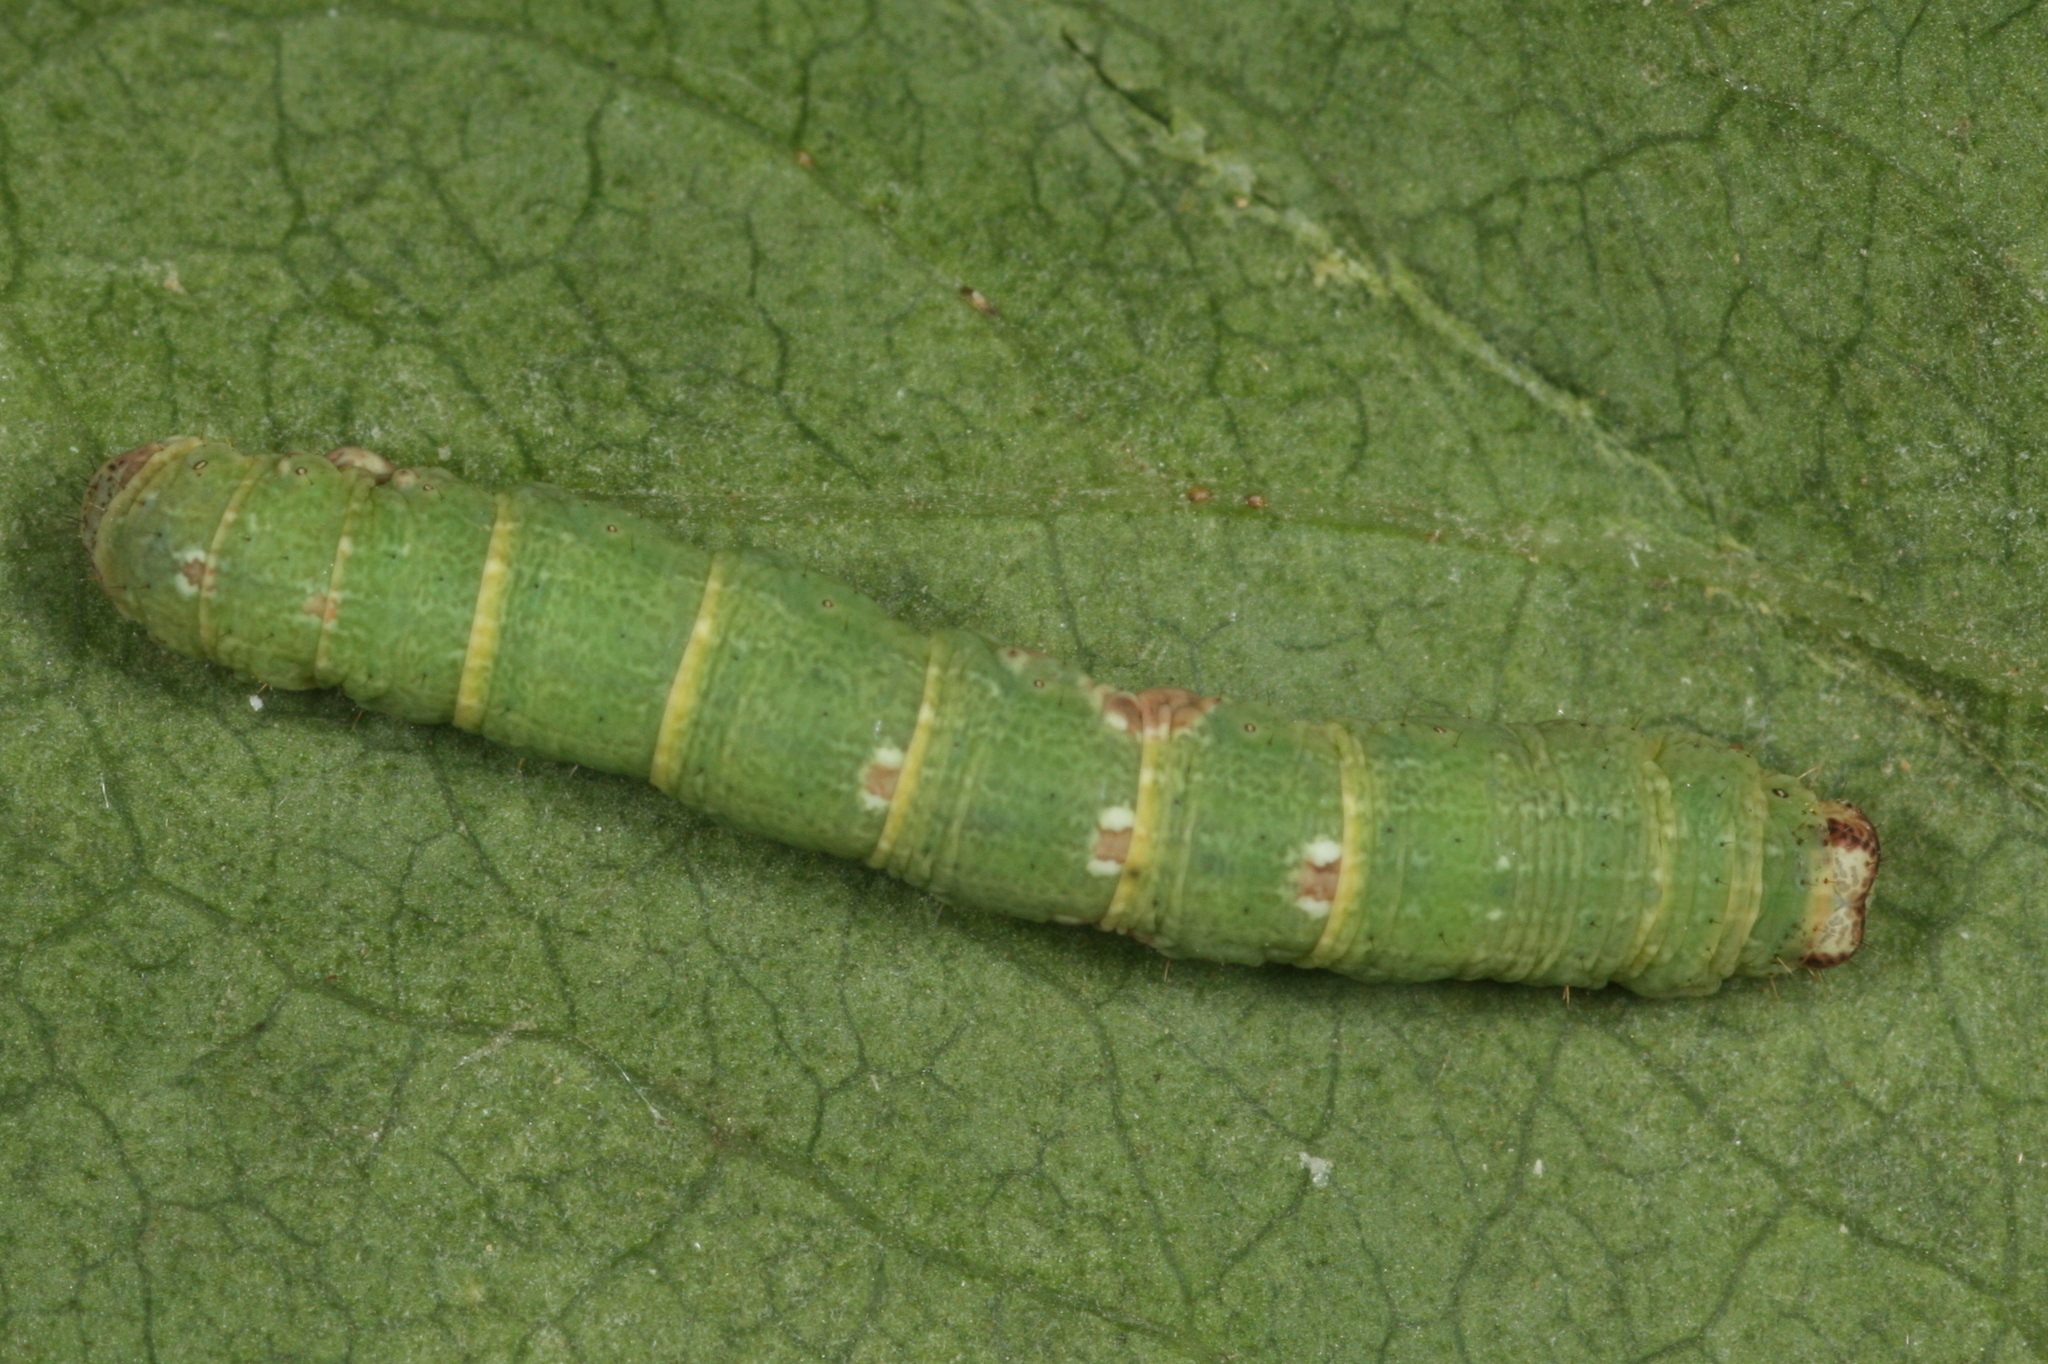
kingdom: Animalia
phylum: Arthropoda
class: Insecta
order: Lepidoptera
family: Geometridae
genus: Ligdia
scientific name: Ligdia adustata
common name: Scorched carpet
